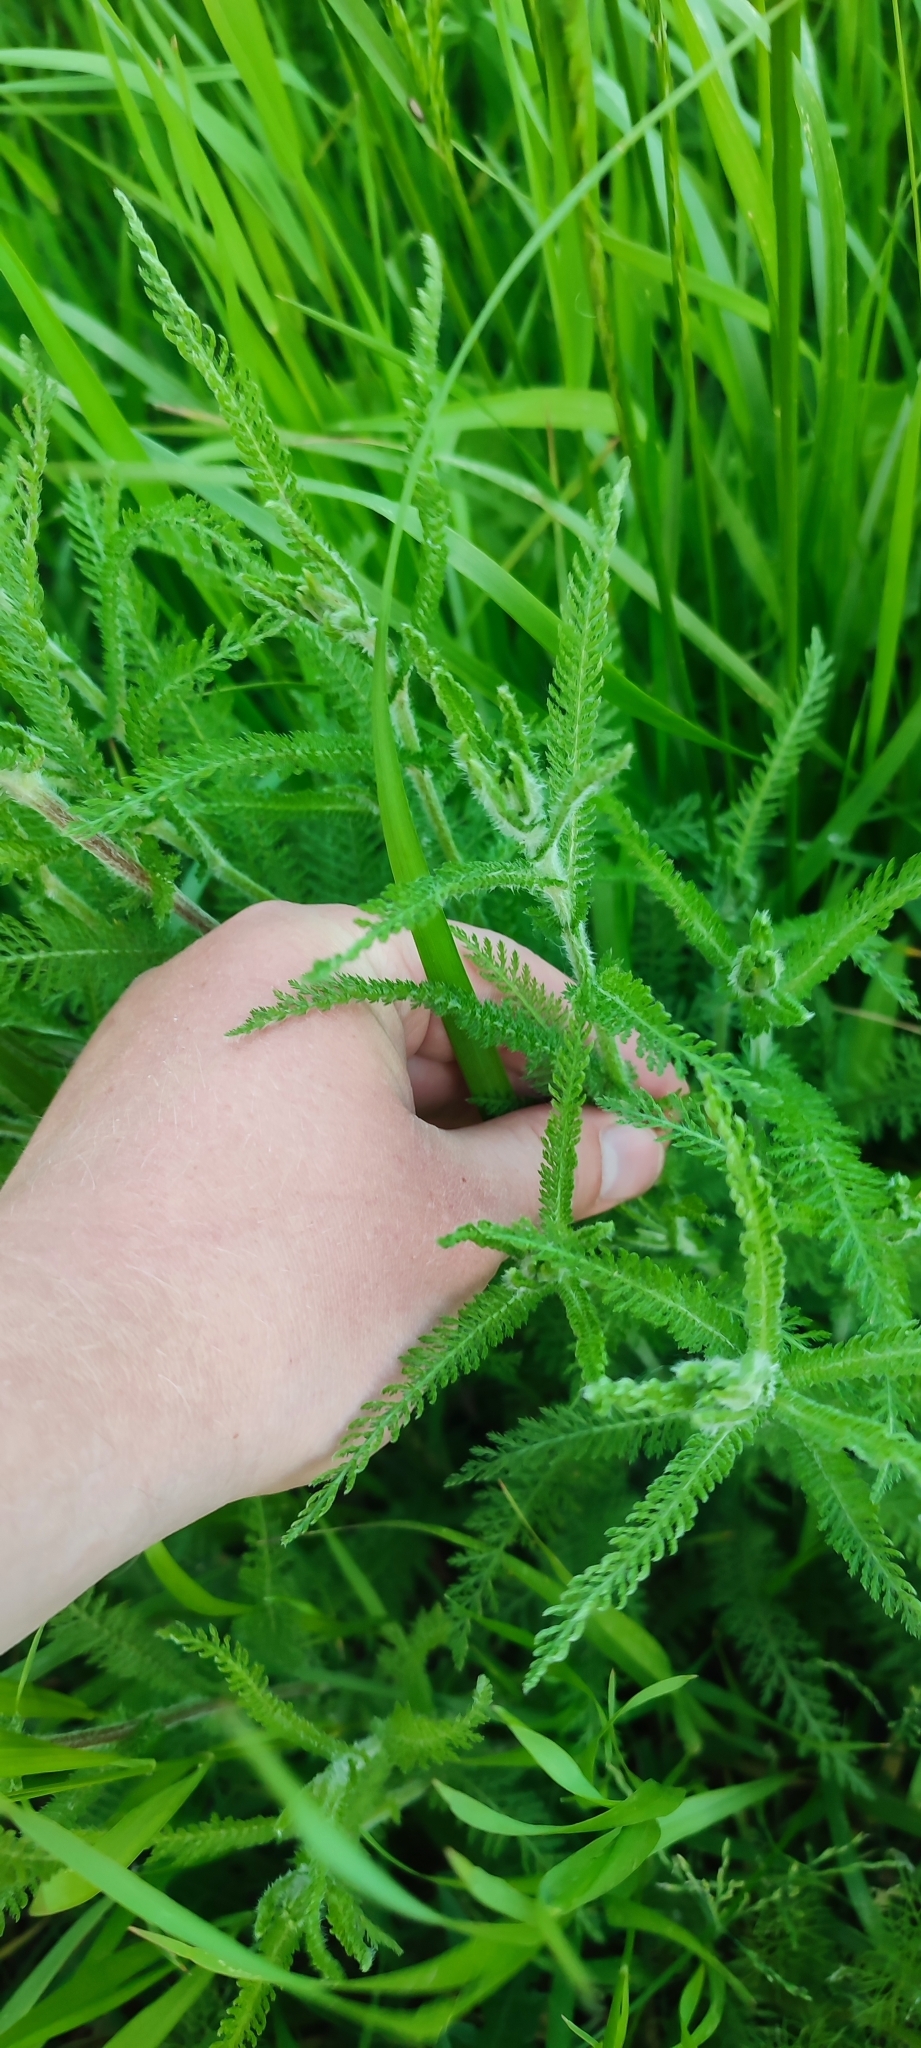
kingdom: Plantae
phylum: Tracheophyta
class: Magnoliopsida
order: Asterales
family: Asteraceae
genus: Achillea
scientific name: Achillea millefolium
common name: Yarrow
